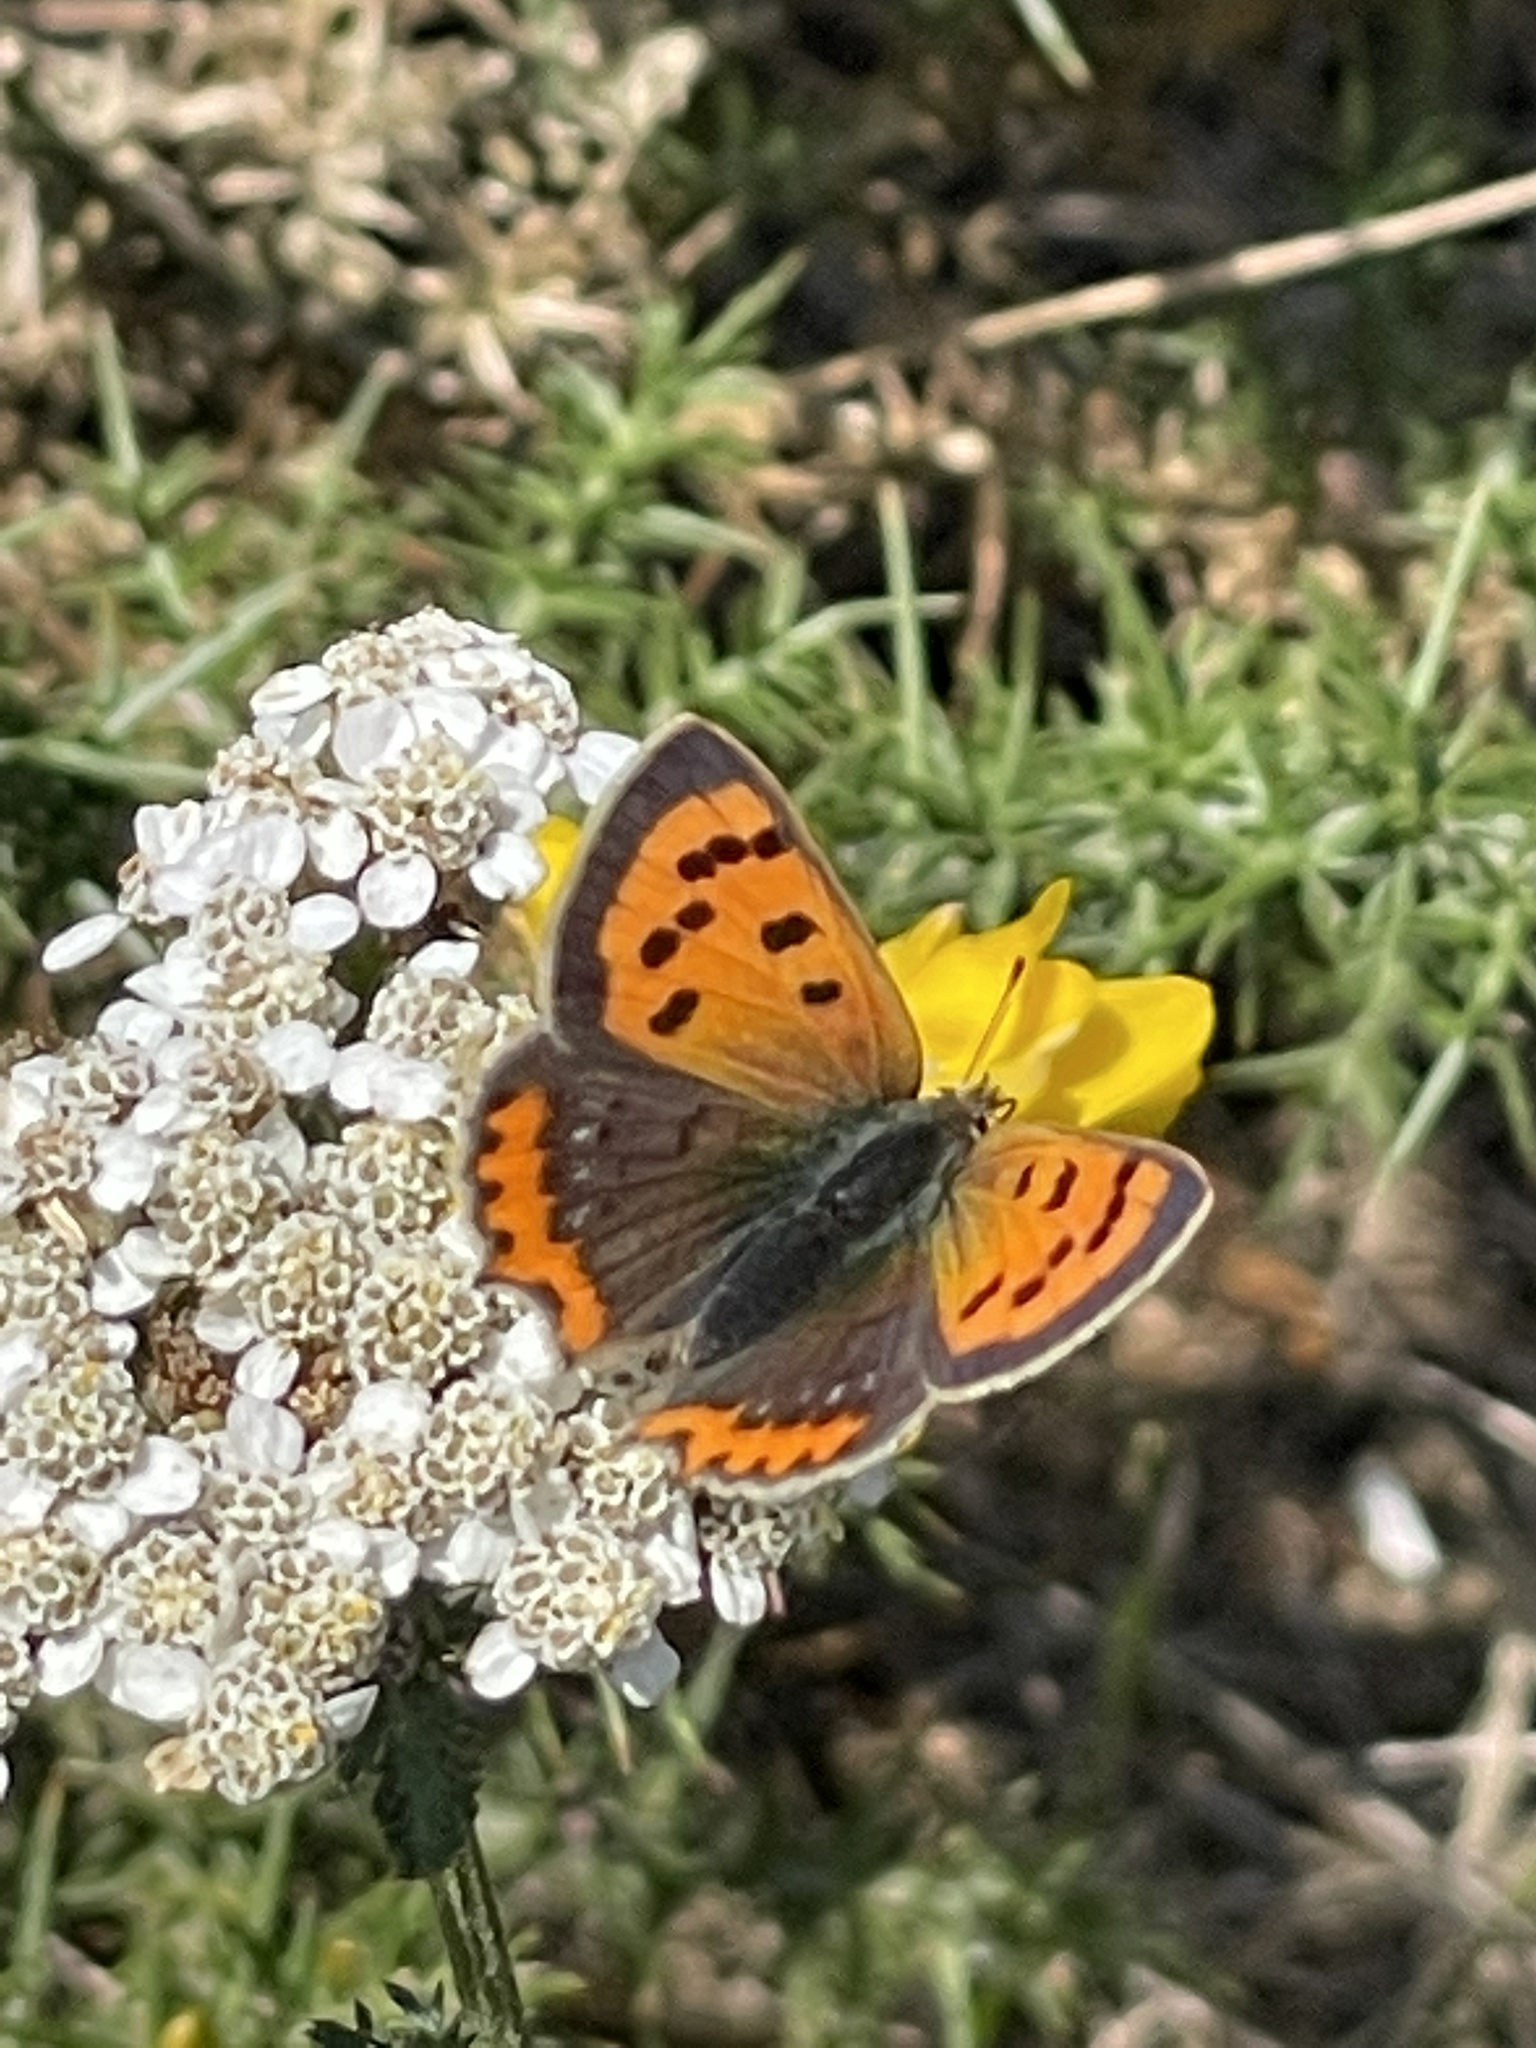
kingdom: Animalia
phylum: Arthropoda
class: Insecta
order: Lepidoptera
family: Lycaenidae
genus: Lycaena
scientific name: Lycaena phlaeas
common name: Small copper
